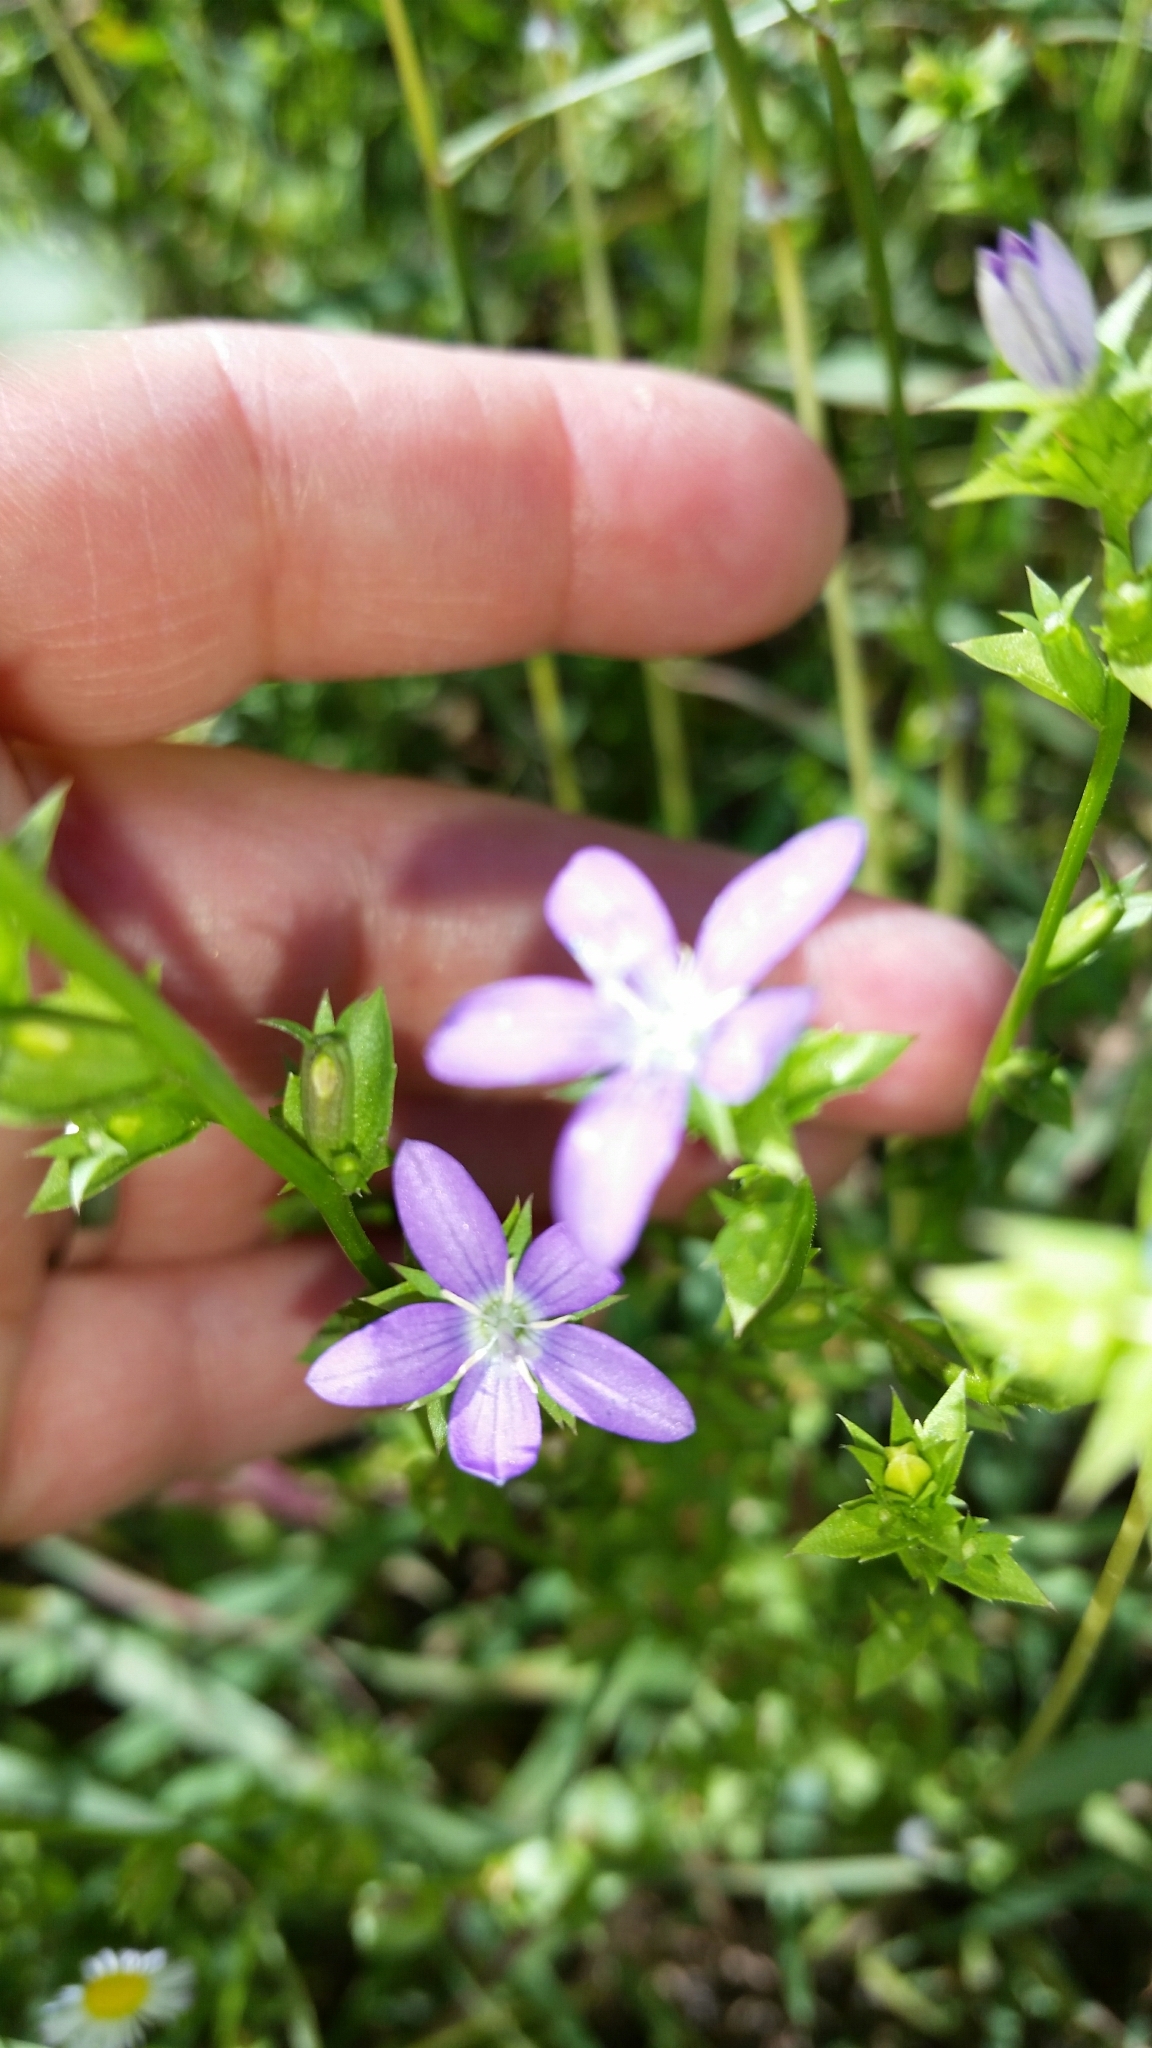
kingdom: Plantae
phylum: Tracheophyta
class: Magnoliopsida
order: Asterales
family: Campanulaceae
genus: Triodanis
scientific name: Triodanis biflora
